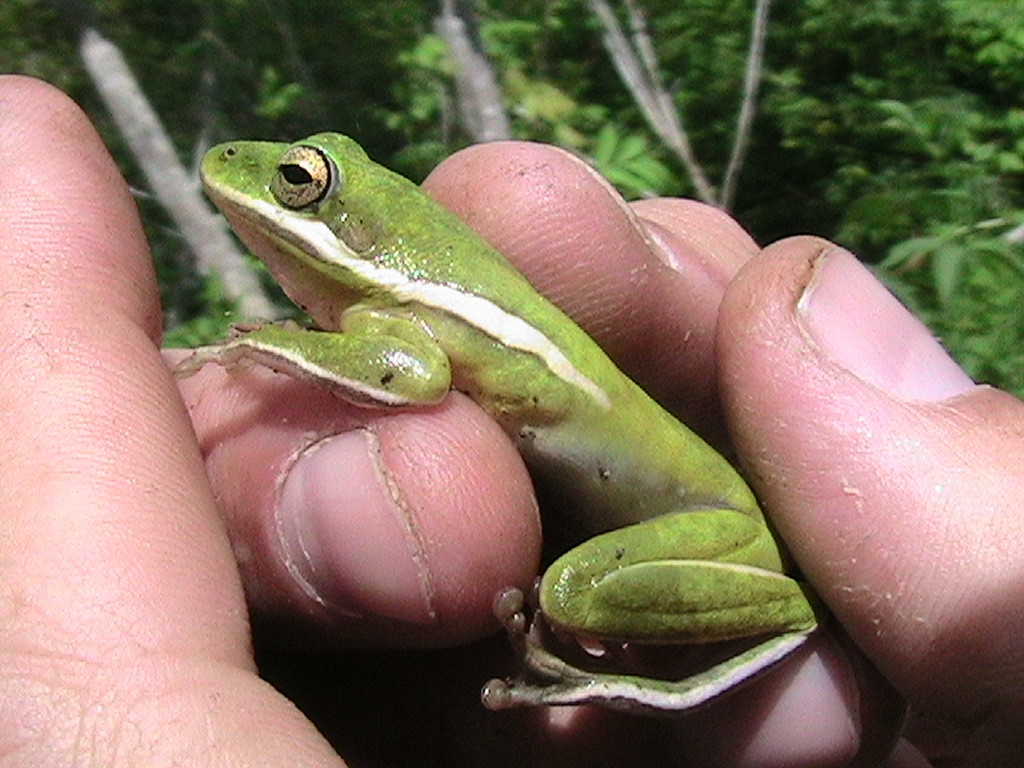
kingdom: Animalia
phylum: Chordata
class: Amphibia
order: Anura
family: Hylidae
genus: Dryophytes
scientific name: Dryophytes cinereus
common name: Green treefrog
